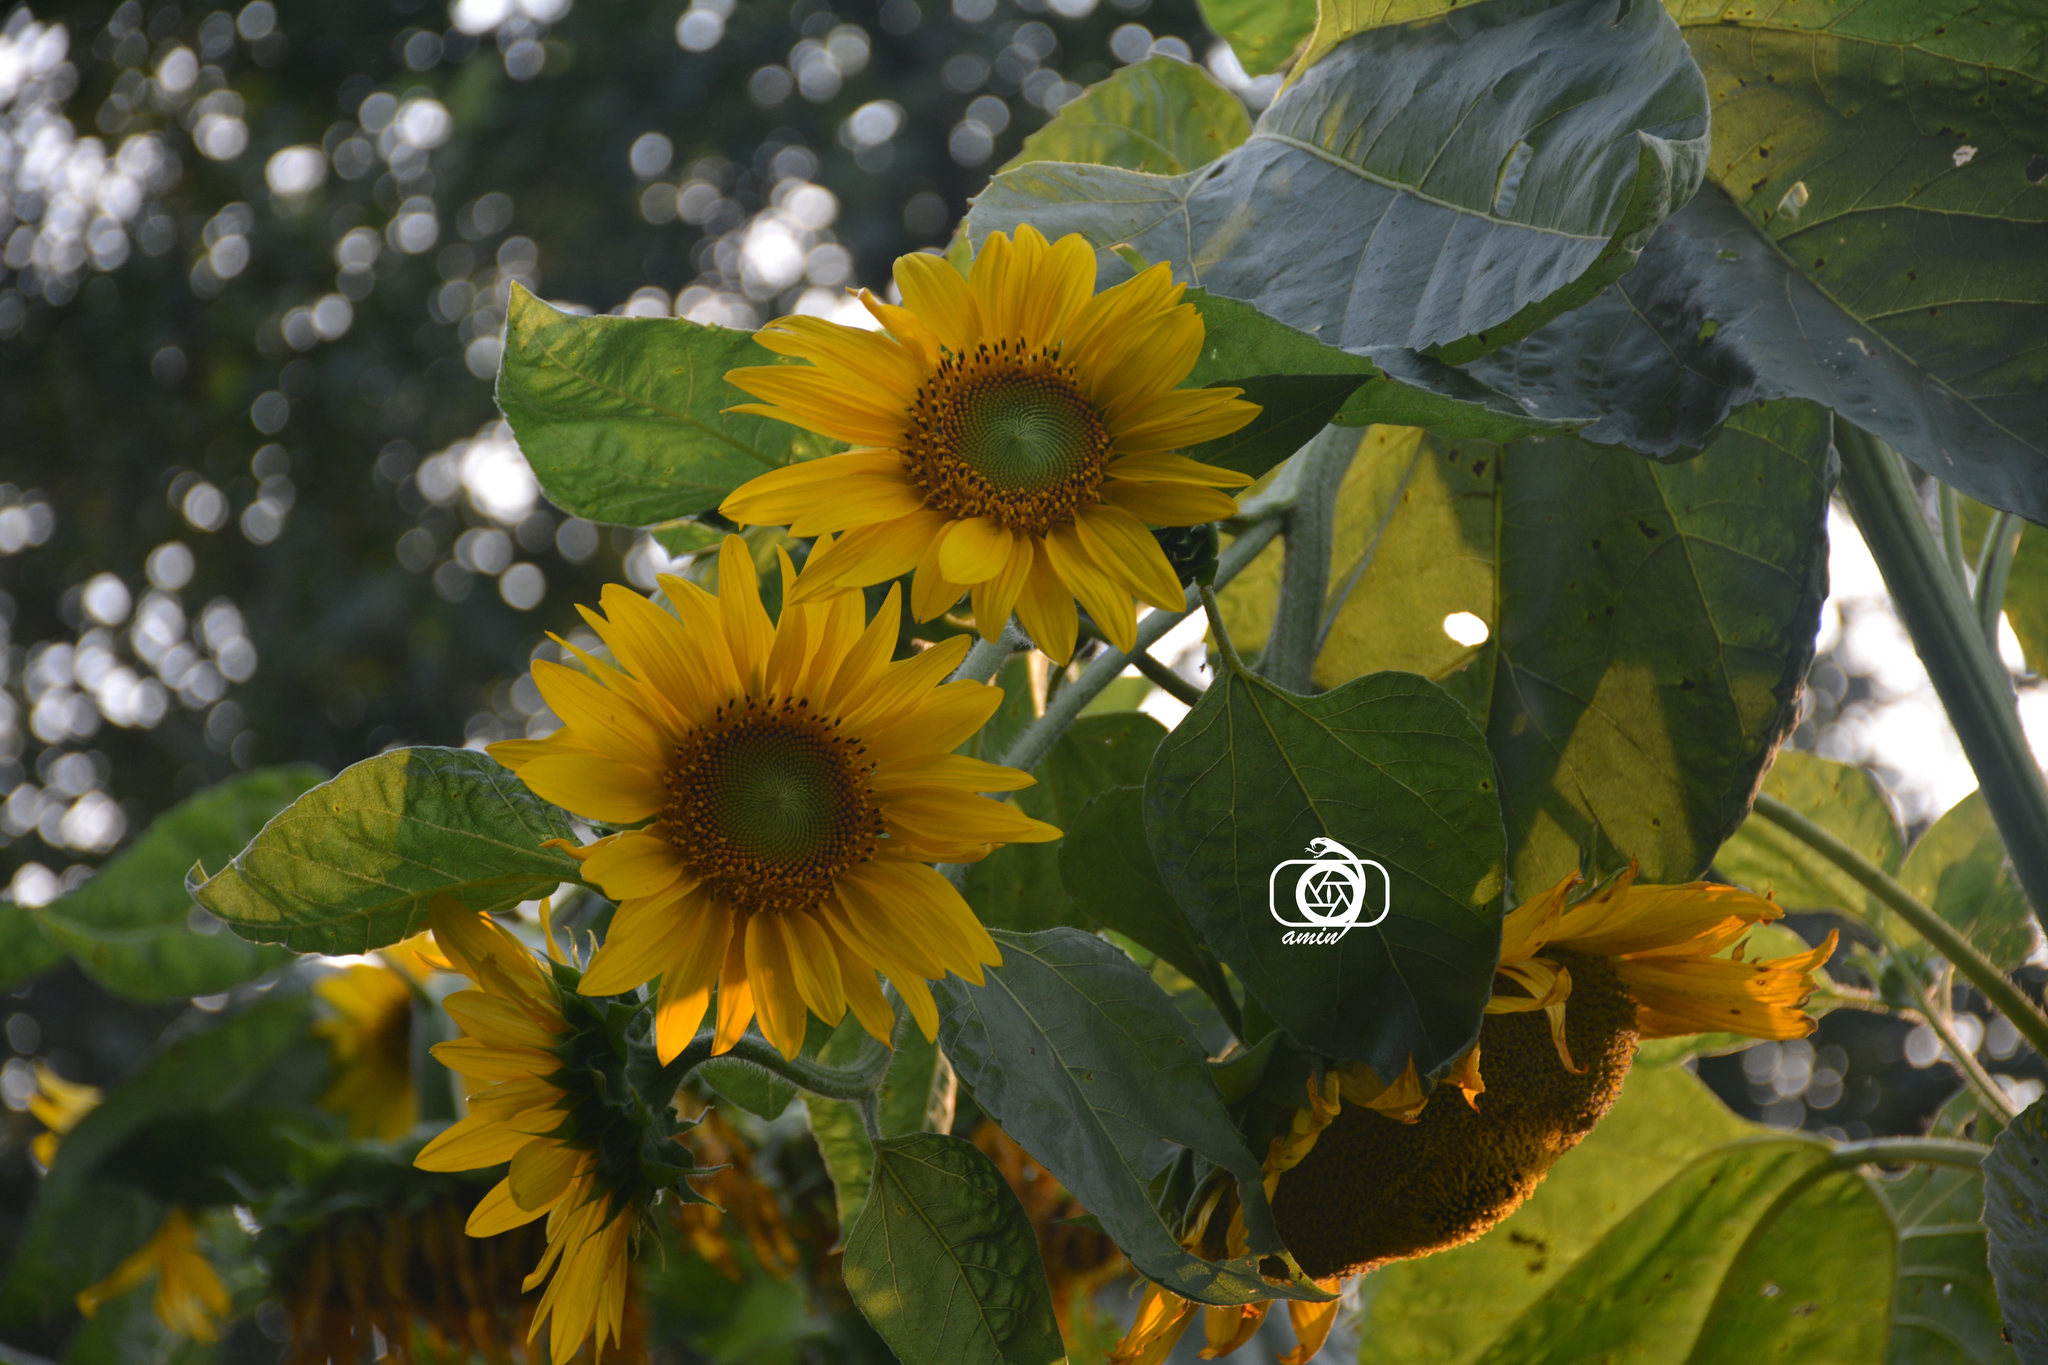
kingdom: Plantae
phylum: Tracheophyta
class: Magnoliopsida
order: Asterales
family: Asteraceae
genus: Helianthus
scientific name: Helianthus annuus
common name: Sunflower
